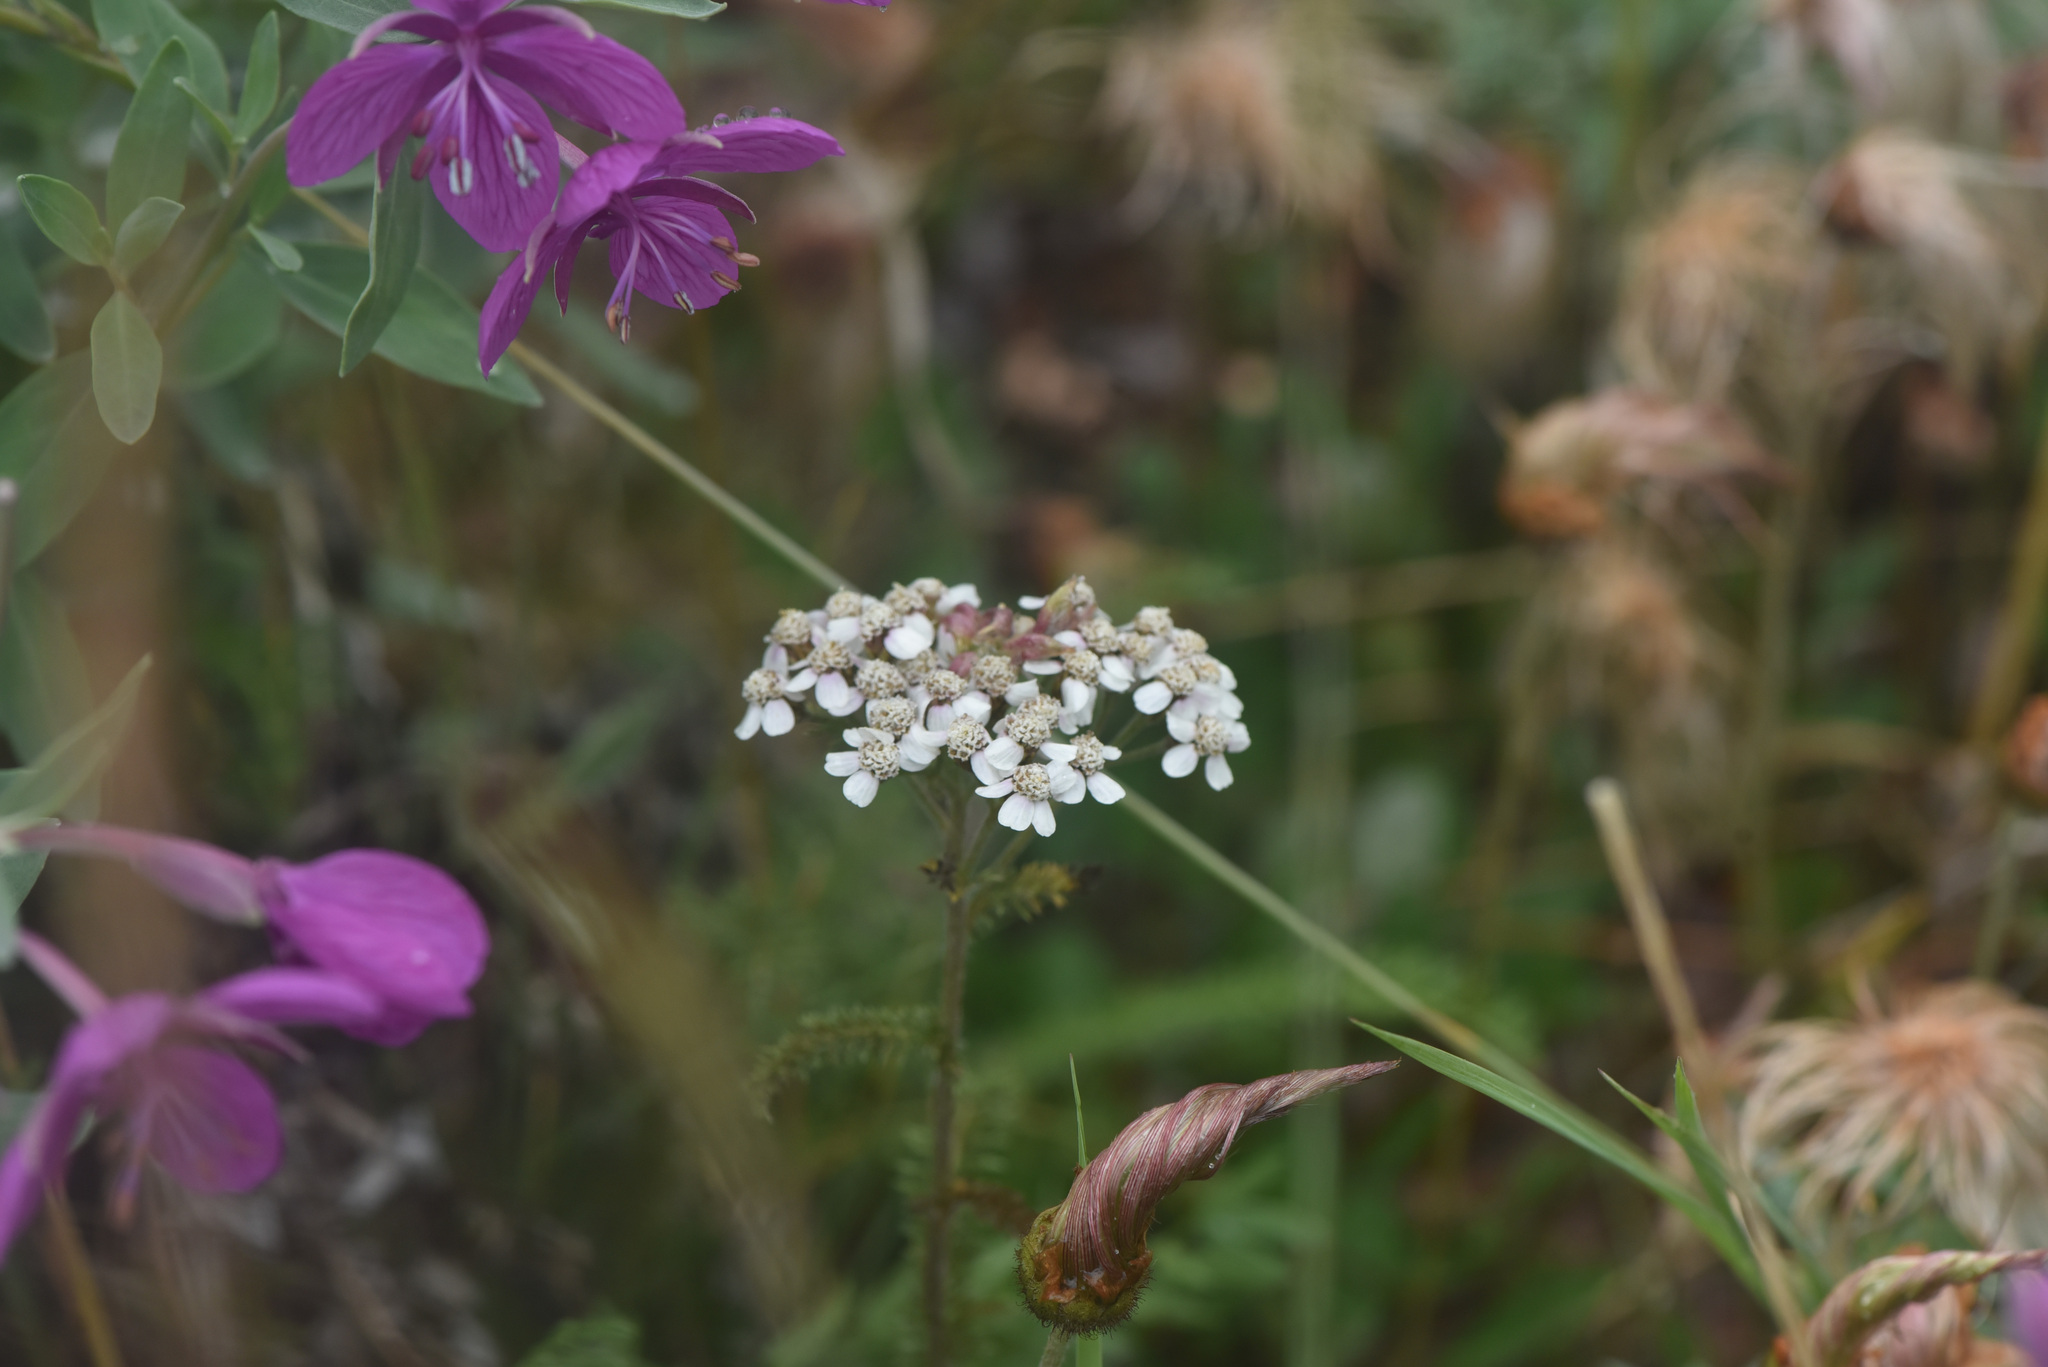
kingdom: Plantae
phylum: Tracheophyta
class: Magnoliopsida
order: Asterales
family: Asteraceae
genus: Achillea
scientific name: Achillea millefolium
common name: Yarrow
